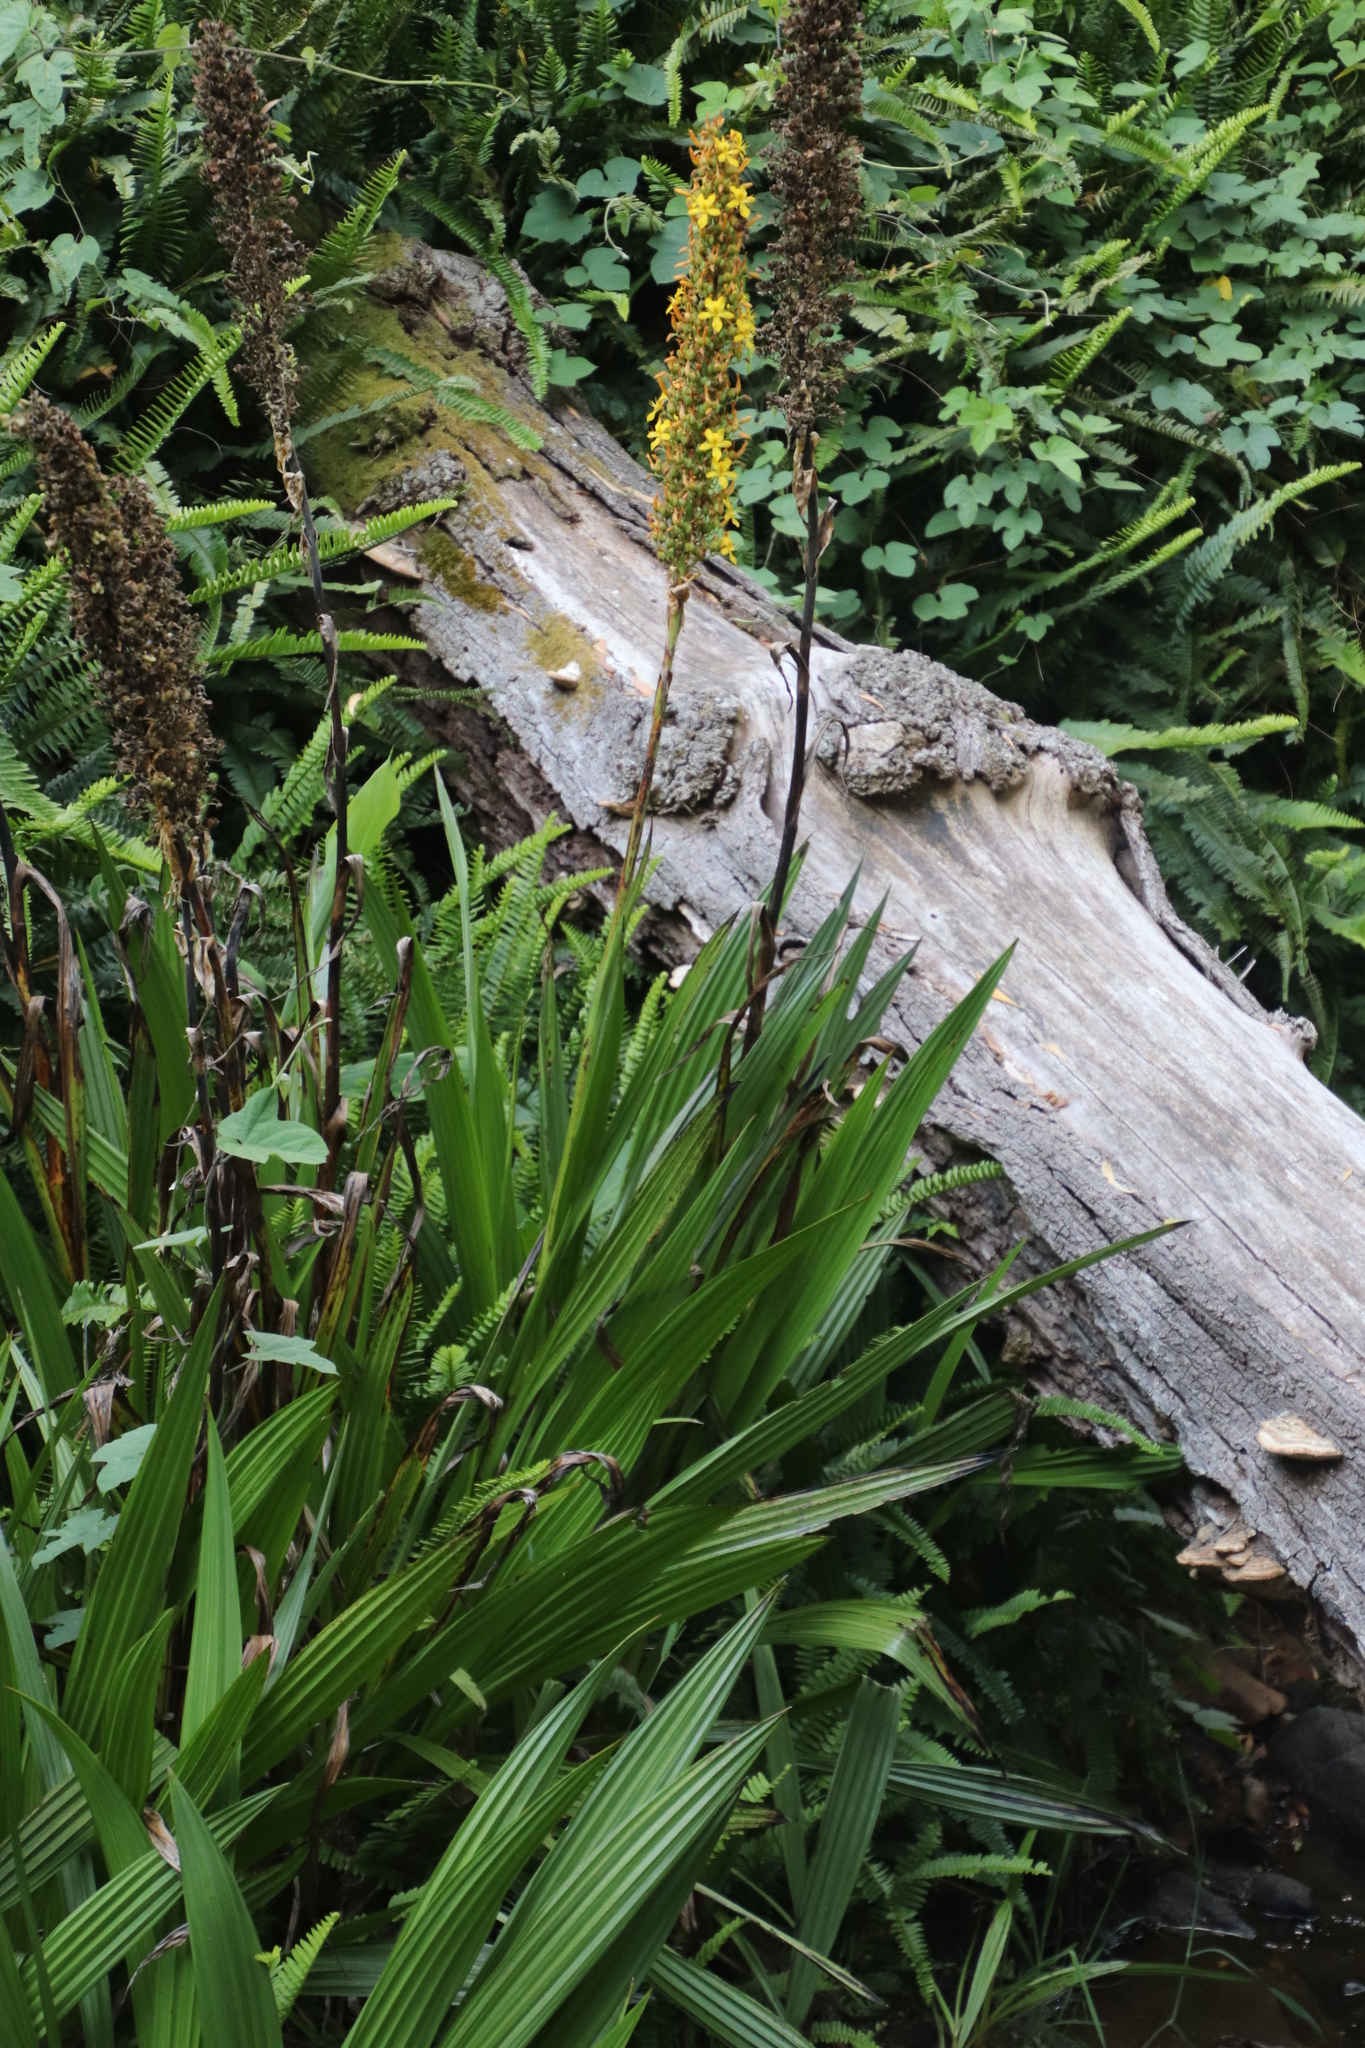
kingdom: Plantae
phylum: Tracheophyta
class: Liliopsida
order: Commelinales
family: Haemodoraceae
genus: Wachendorfia
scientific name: Wachendorfia thyrsiflora
